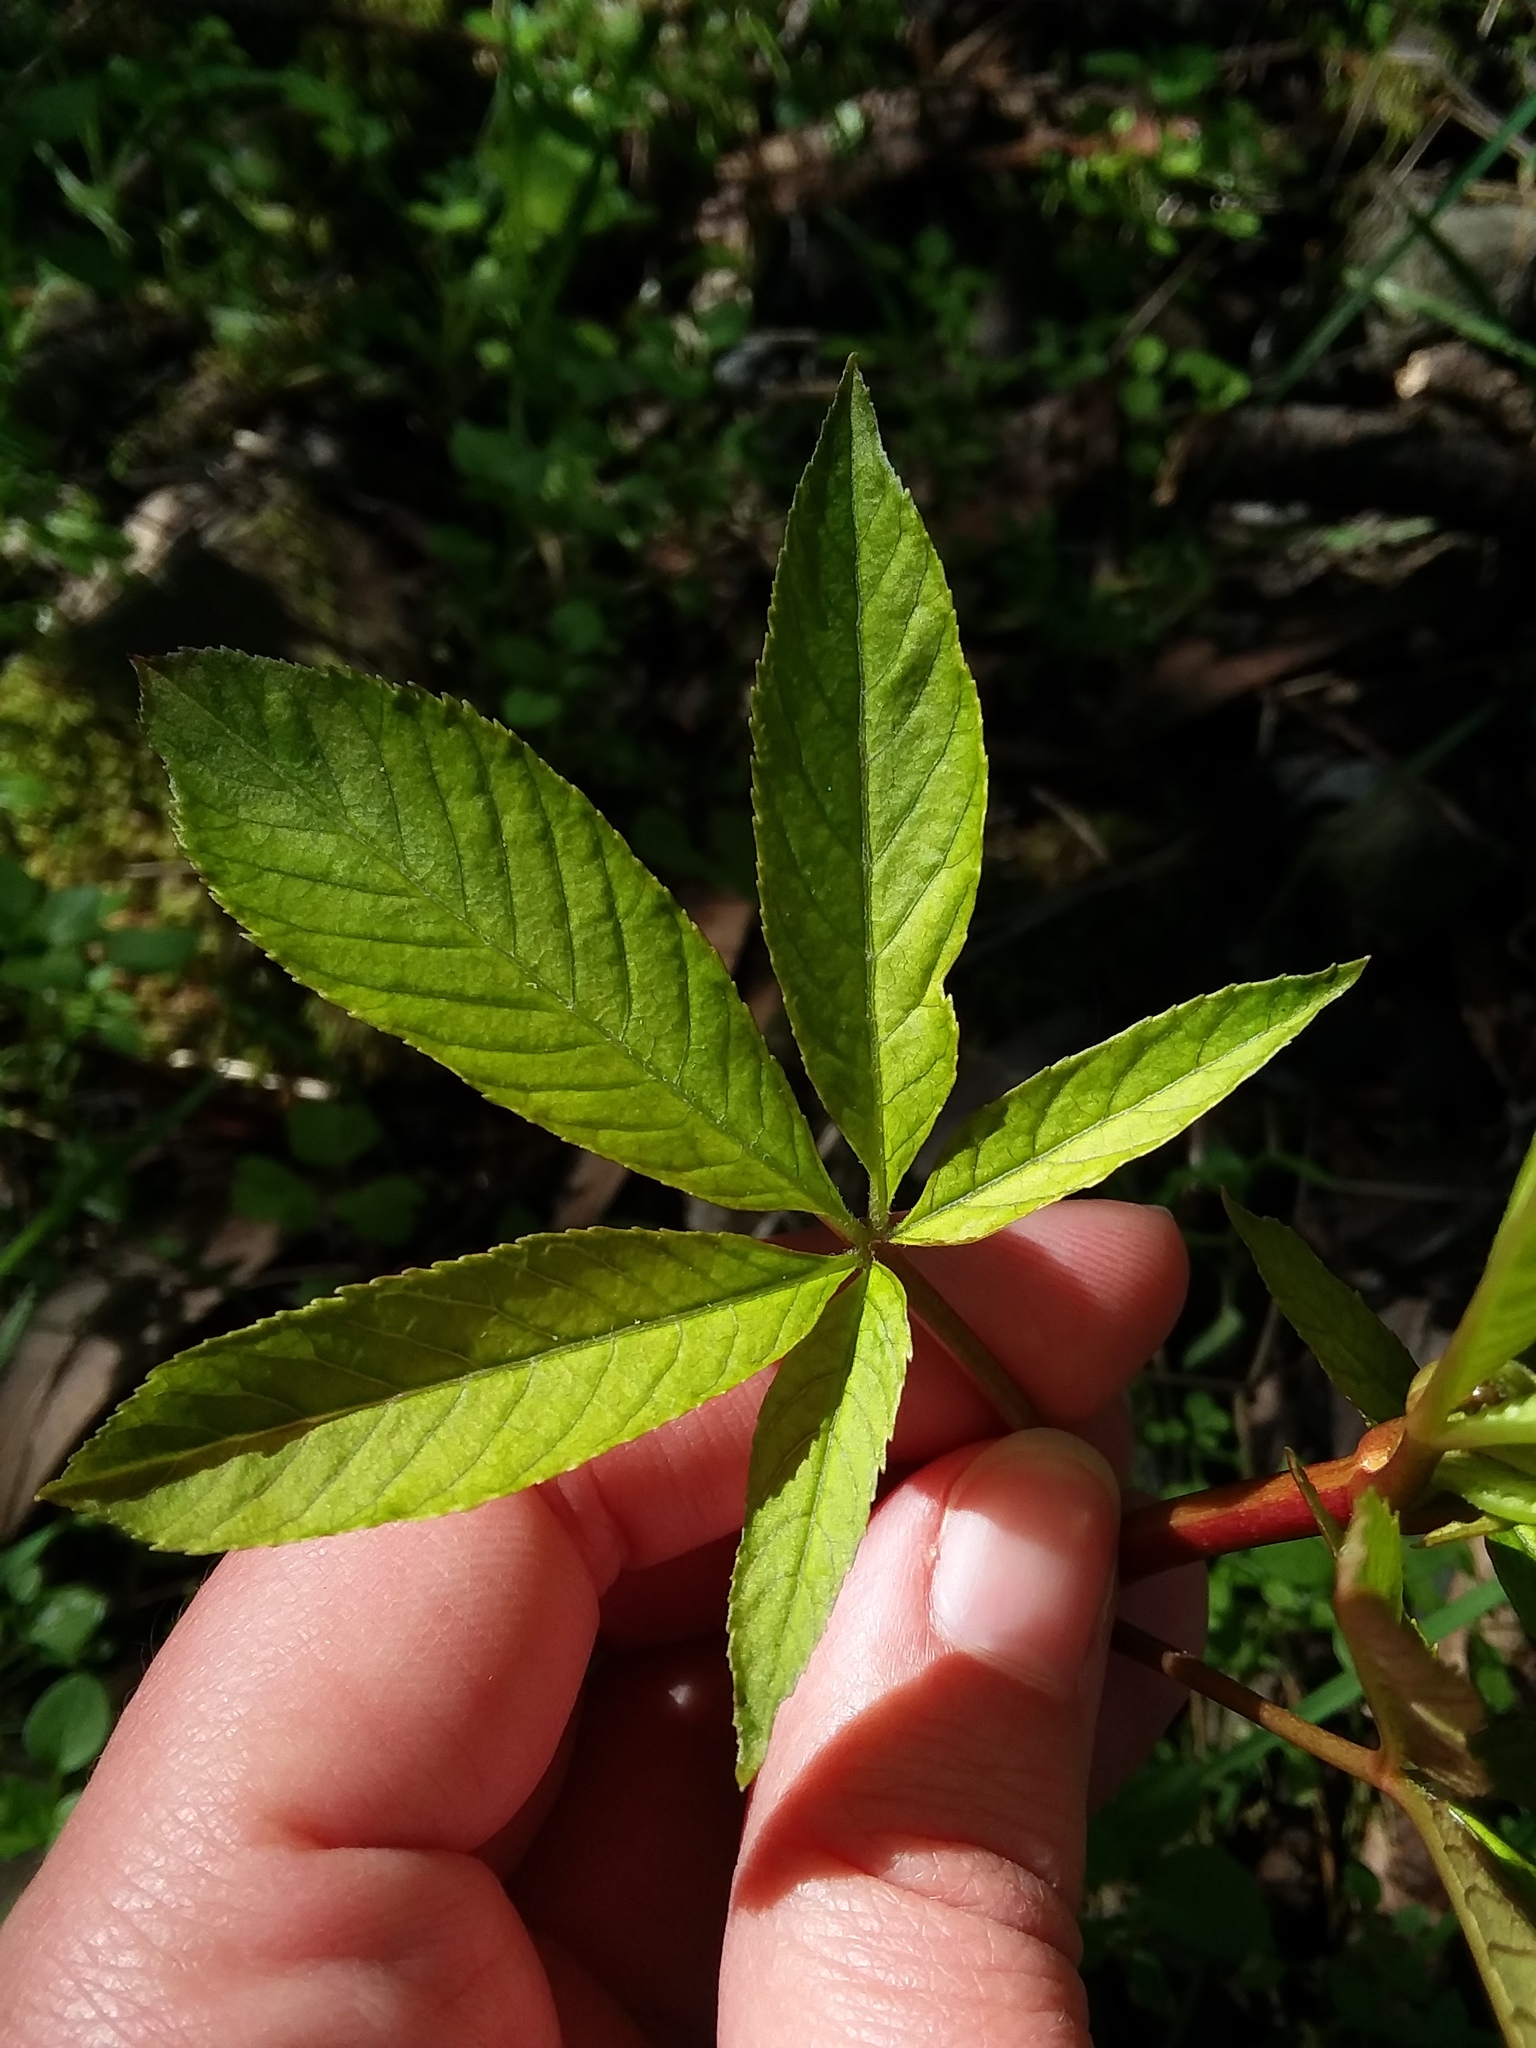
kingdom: Plantae
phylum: Tracheophyta
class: Magnoliopsida
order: Sapindales
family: Sapindaceae
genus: Aesculus
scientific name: Aesculus californica
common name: California buckeye
